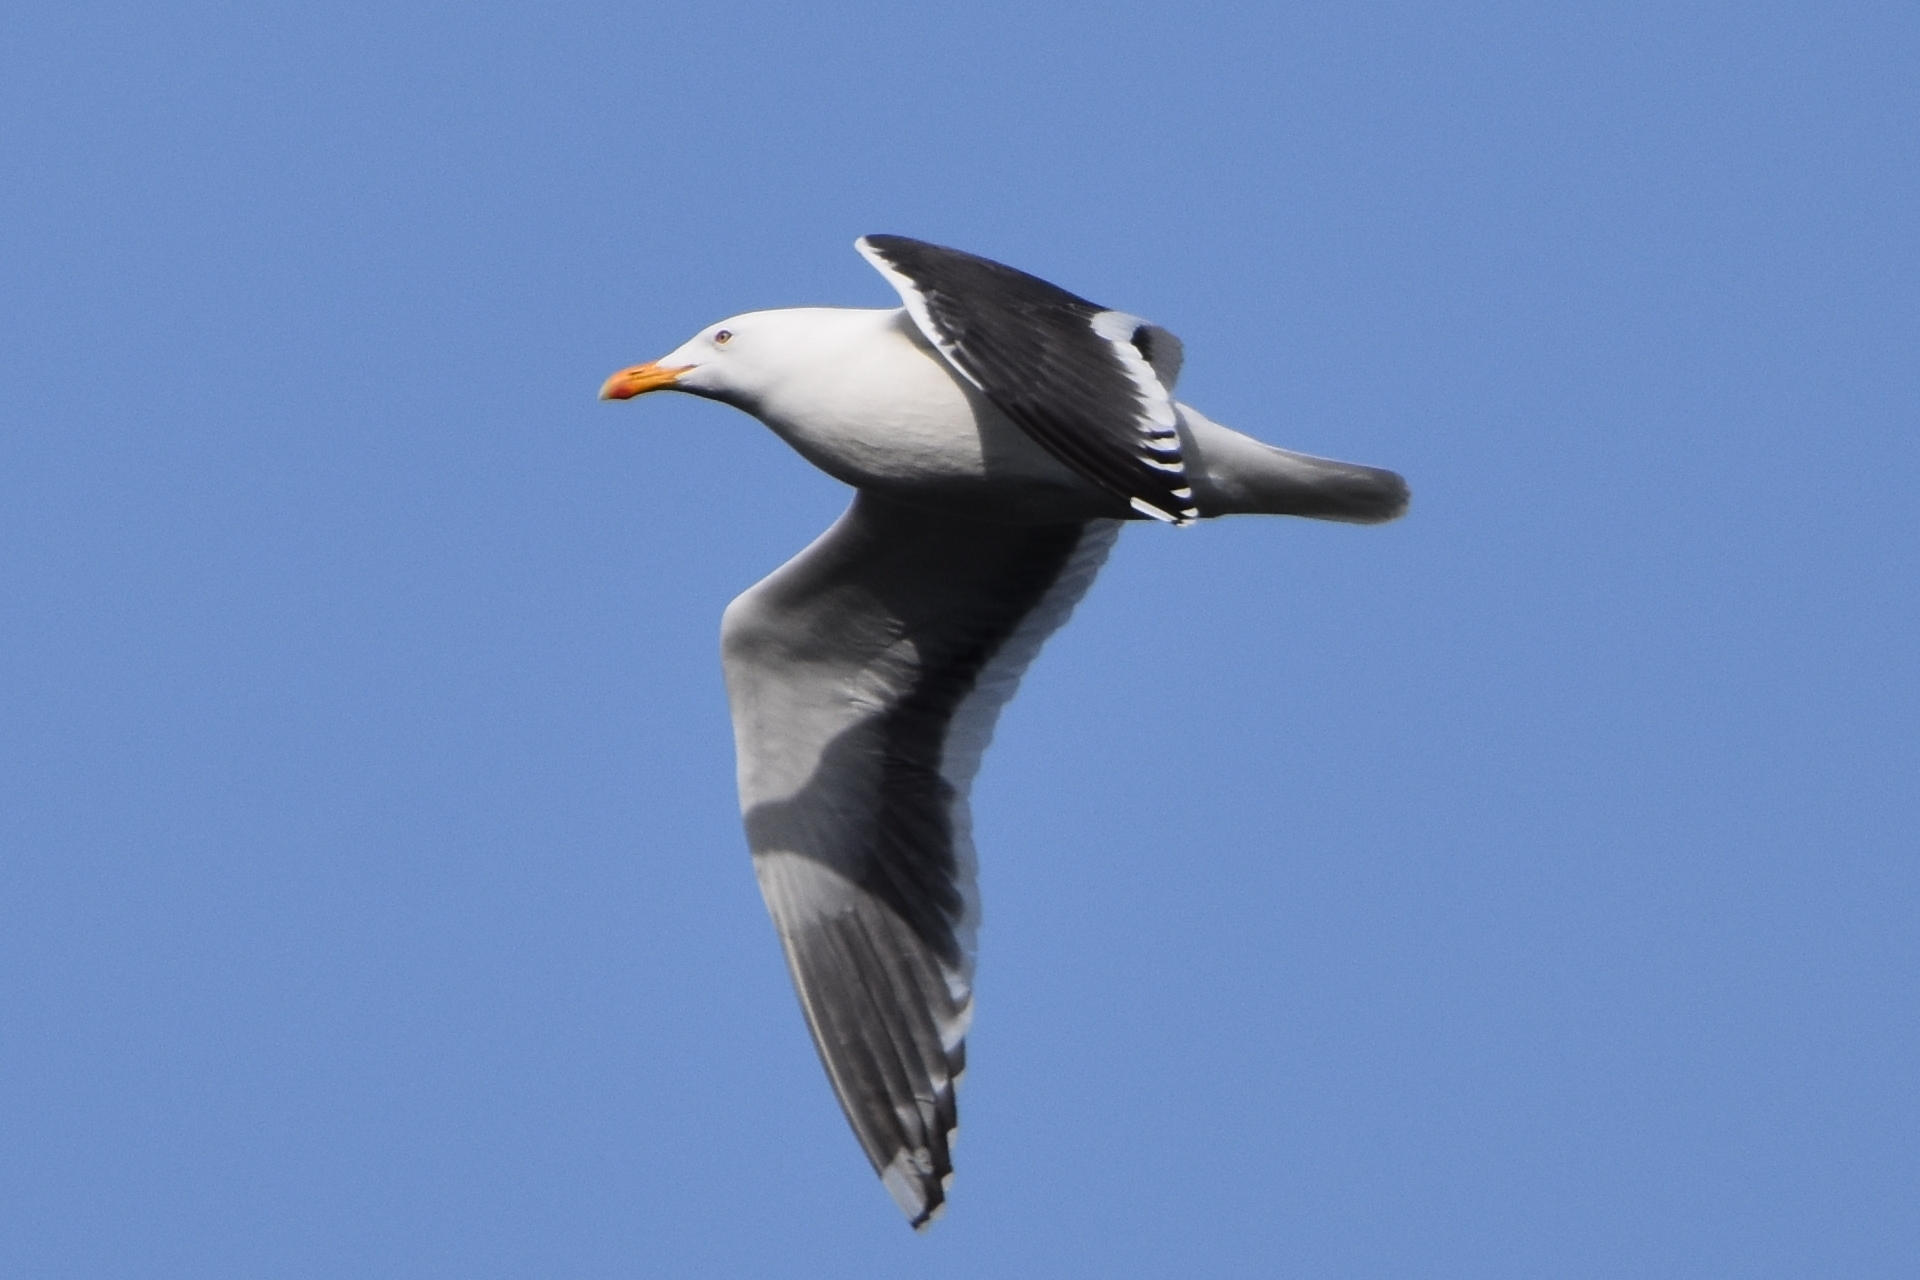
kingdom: Animalia
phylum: Chordata
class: Aves
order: Charadriiformes
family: Laridae
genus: Larus
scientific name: Larus schistisagus
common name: Slaty-backed gull
